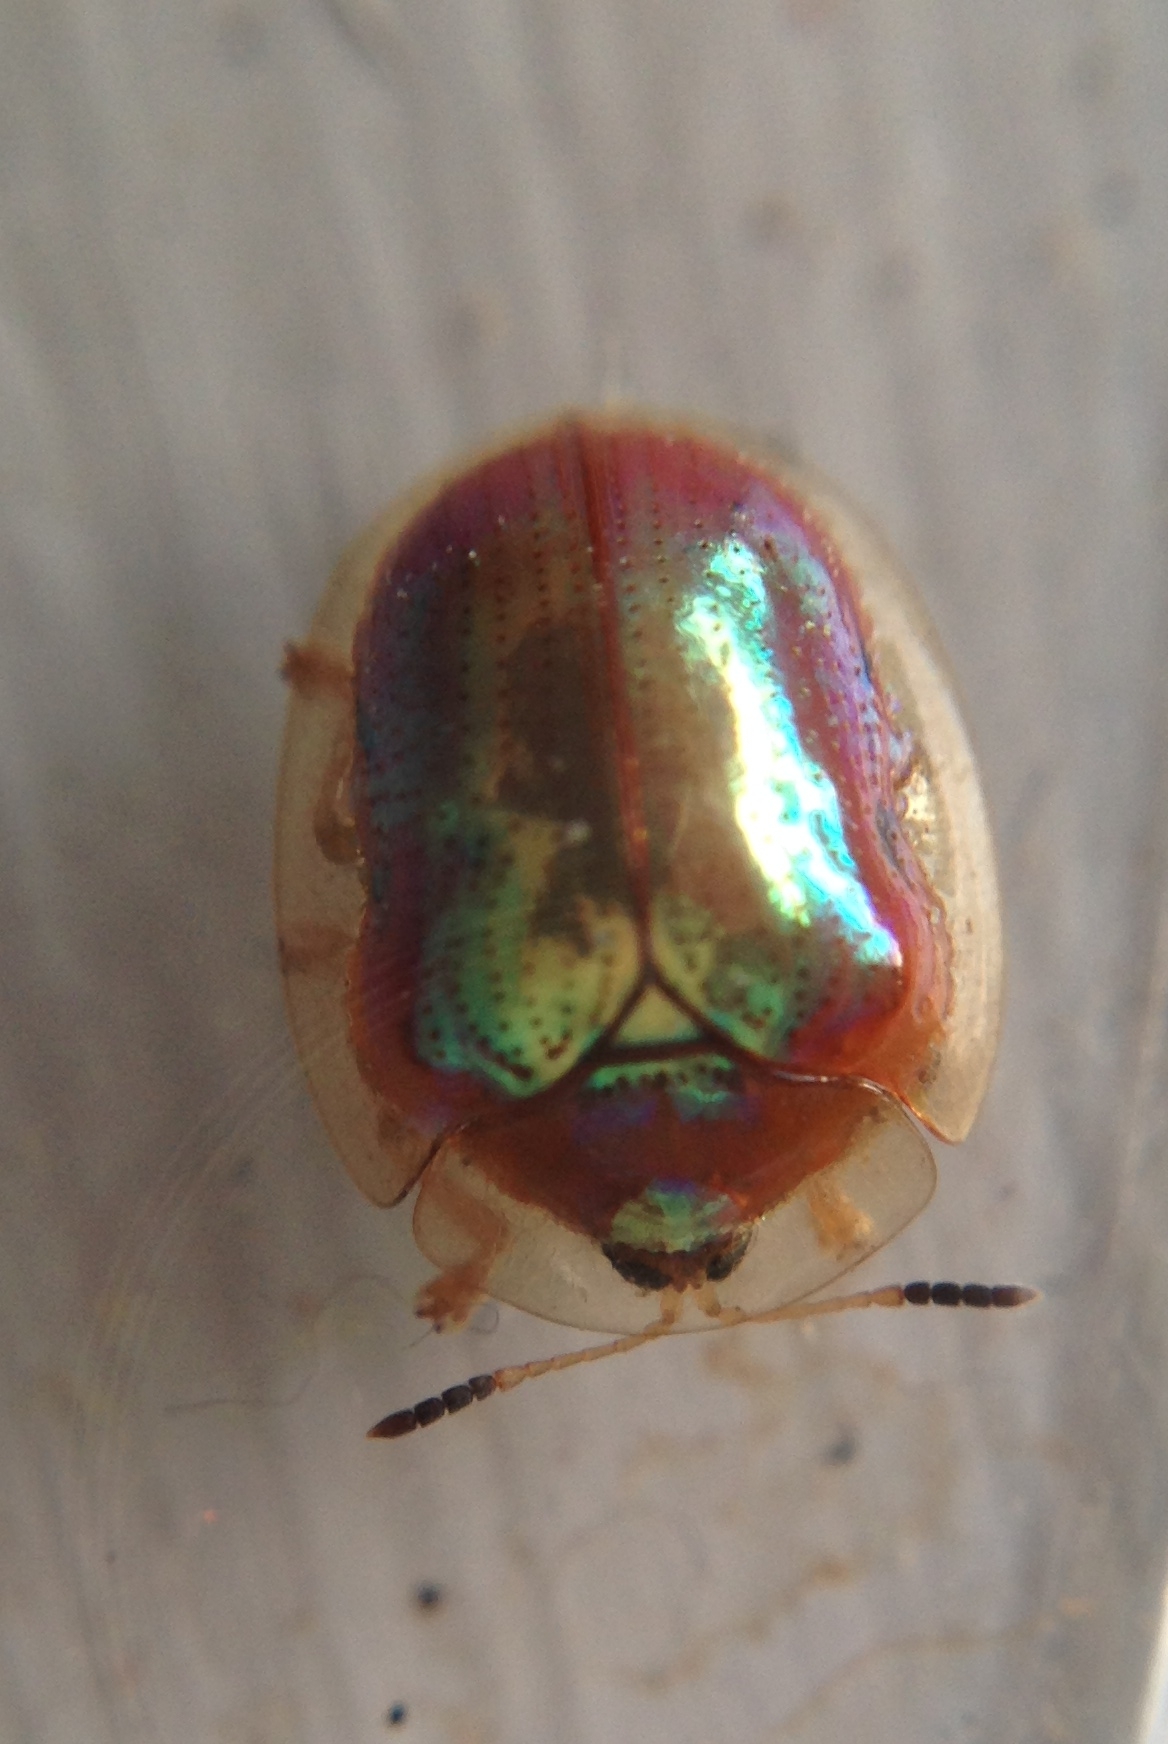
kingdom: Animalia
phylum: Arthropoda
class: Insecta
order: Coleoptera
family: Chrysomelidae
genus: Charidotella
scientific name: Charidotella sexpunctata
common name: Golden tortoise beetle
